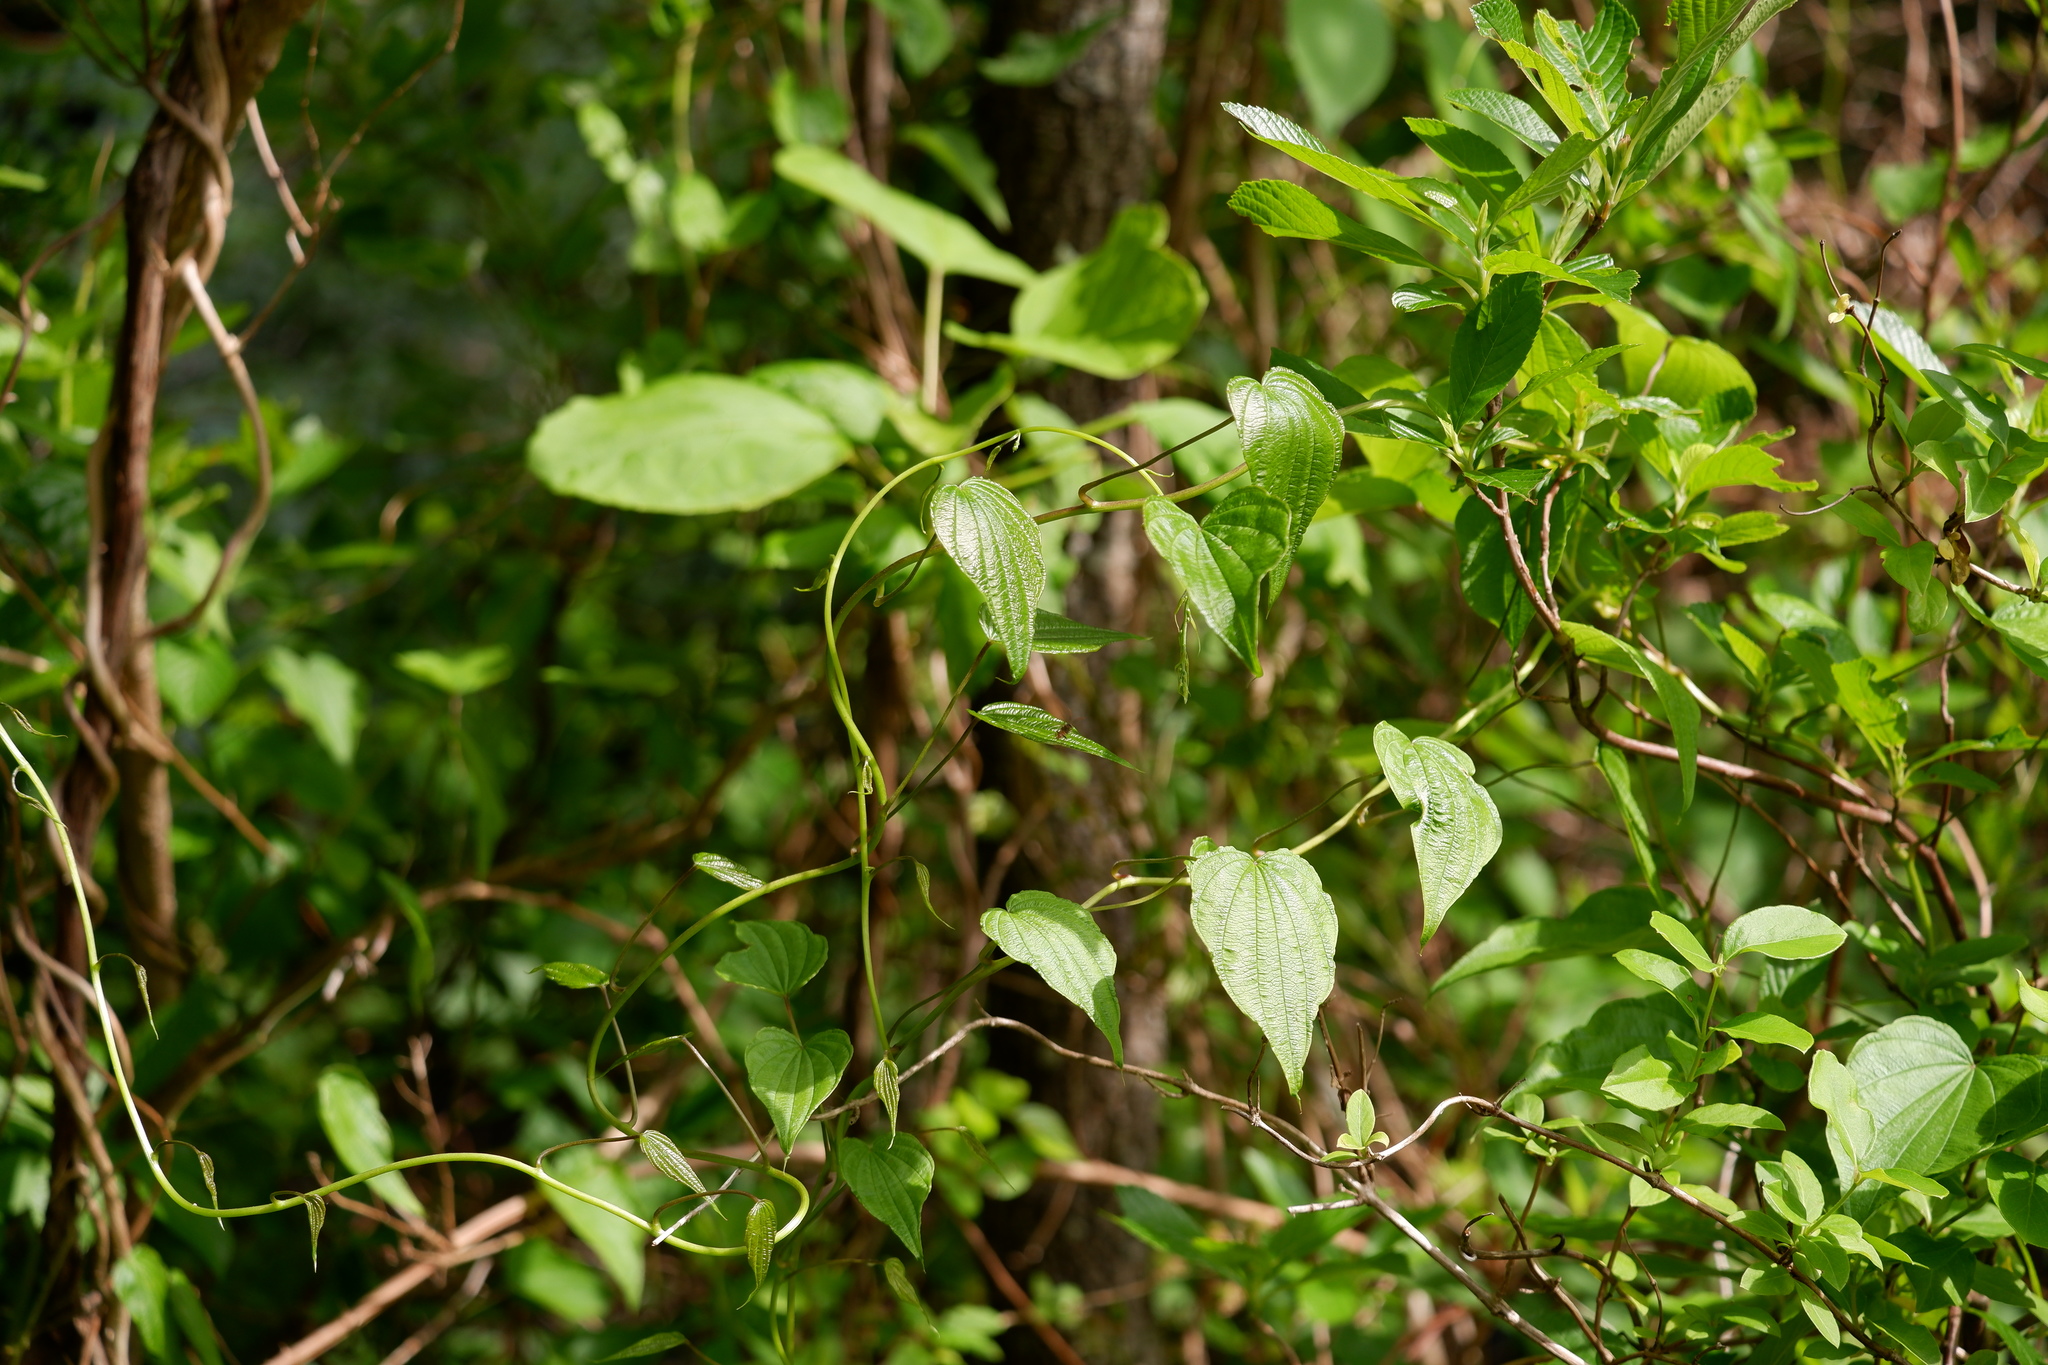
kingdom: Plantae
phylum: Tracheophyta
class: Liliopsida
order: Dioscoreales
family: Dioscoreaceae
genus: Dioscorea
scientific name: Dioscorea villosa
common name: Wild yam
